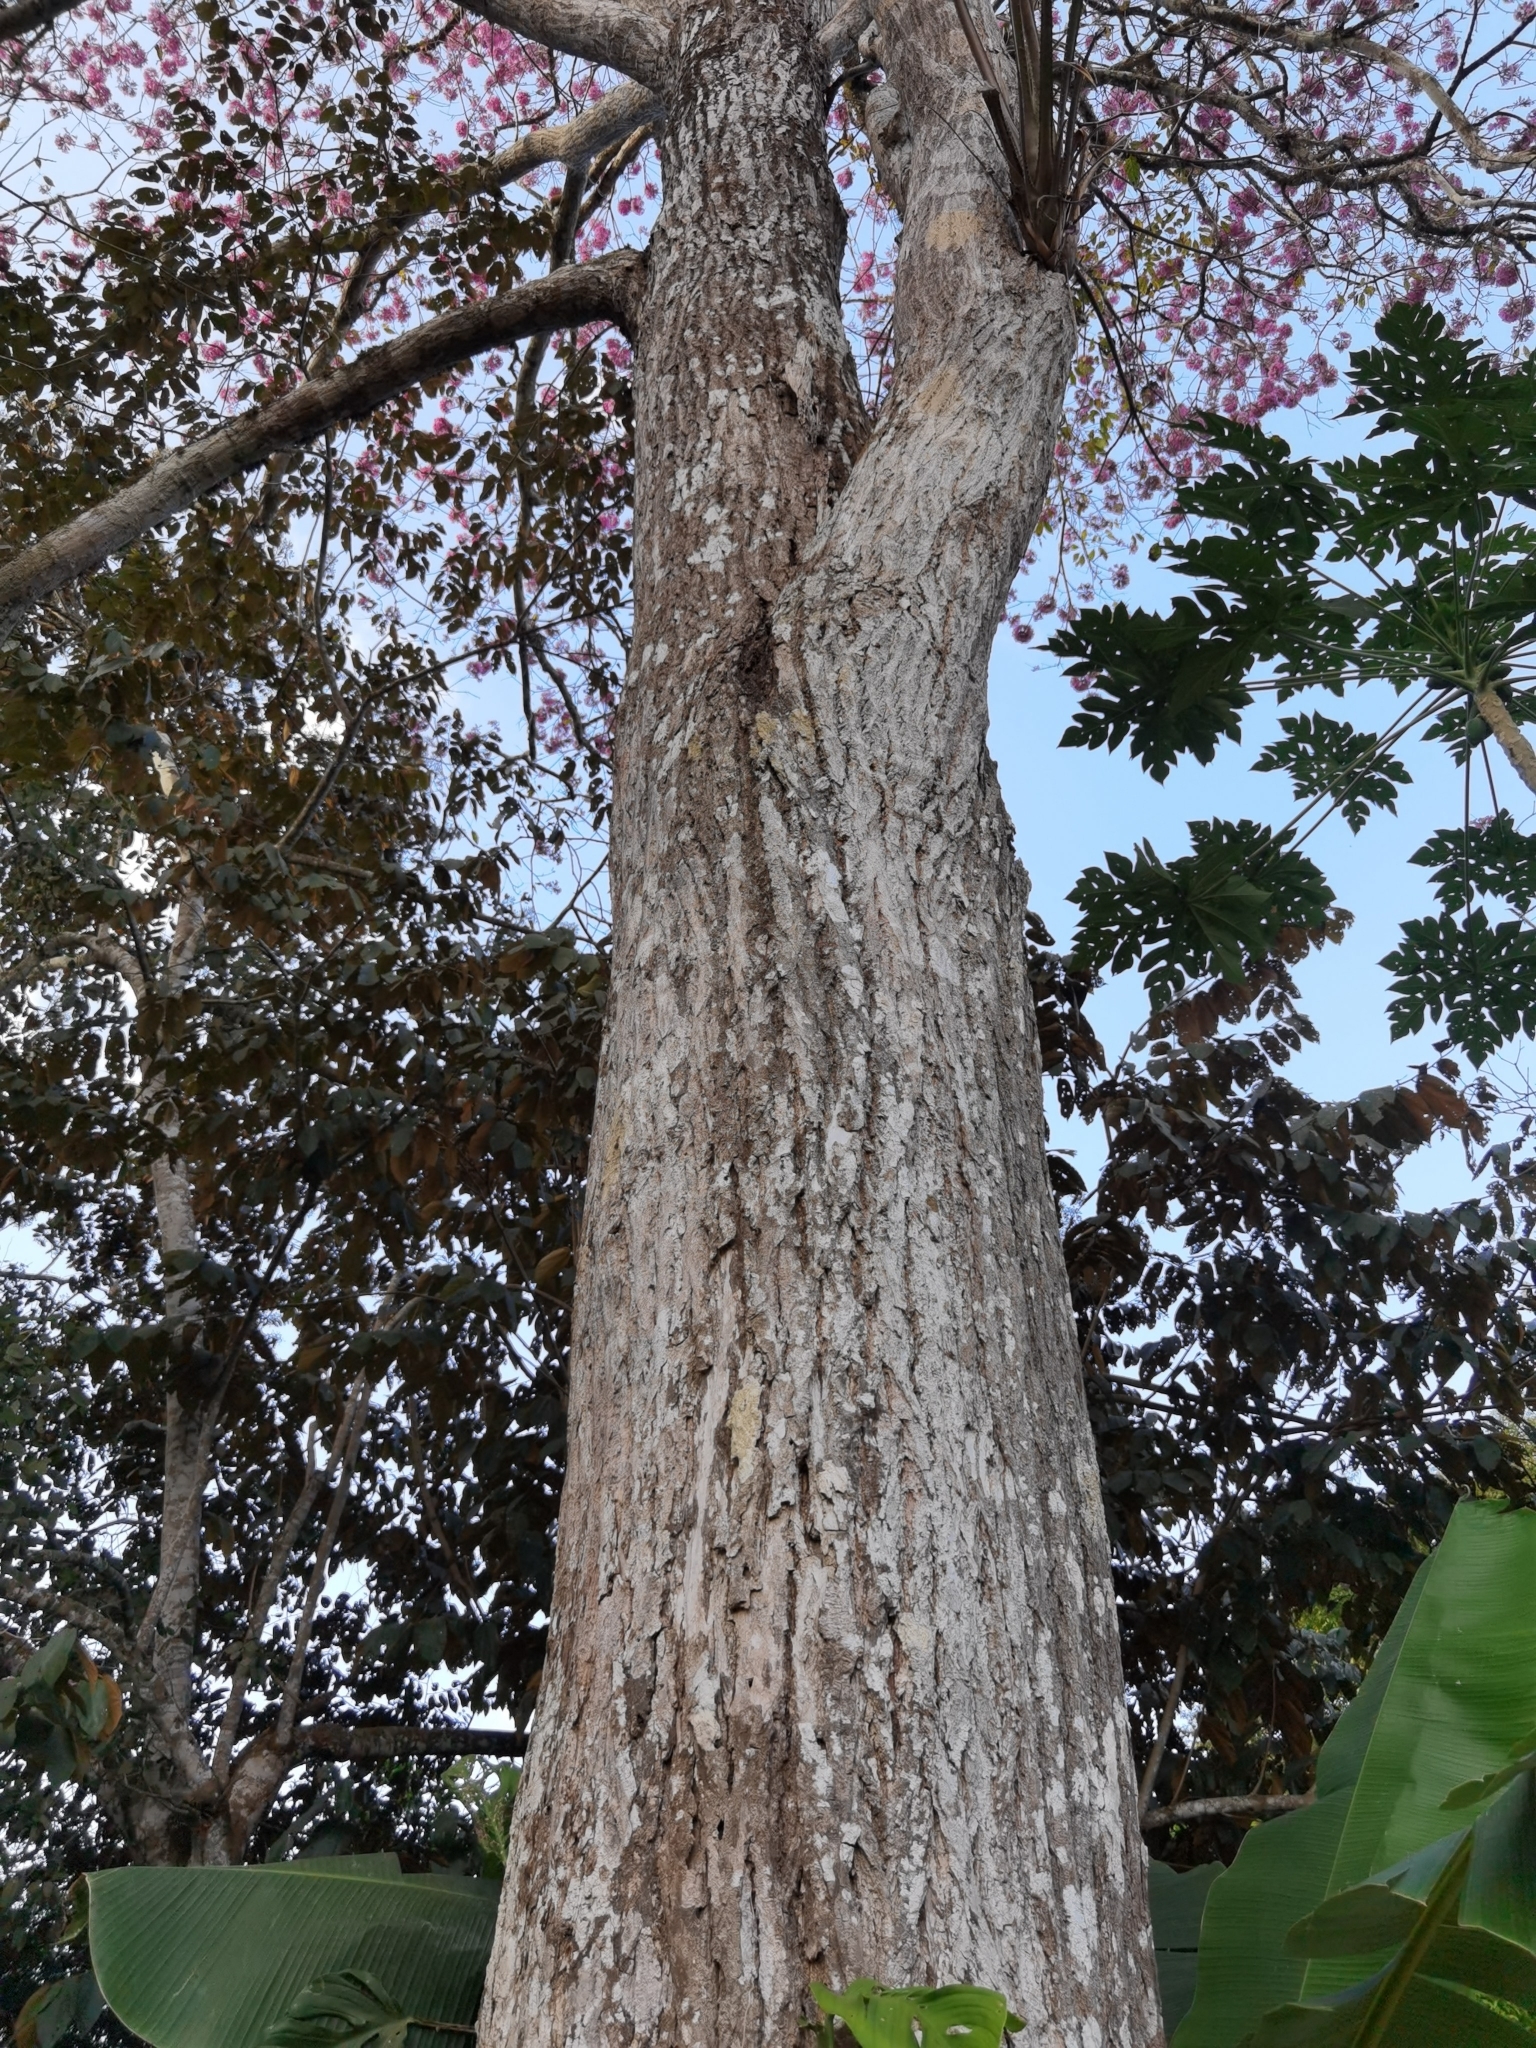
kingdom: Plantae
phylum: Tracheophyta
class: Magnoliopsida
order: Lamiales
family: Bignoniaceae
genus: Handroanthus
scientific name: Handroanthus impetiginosum
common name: Pink trumpet tree
